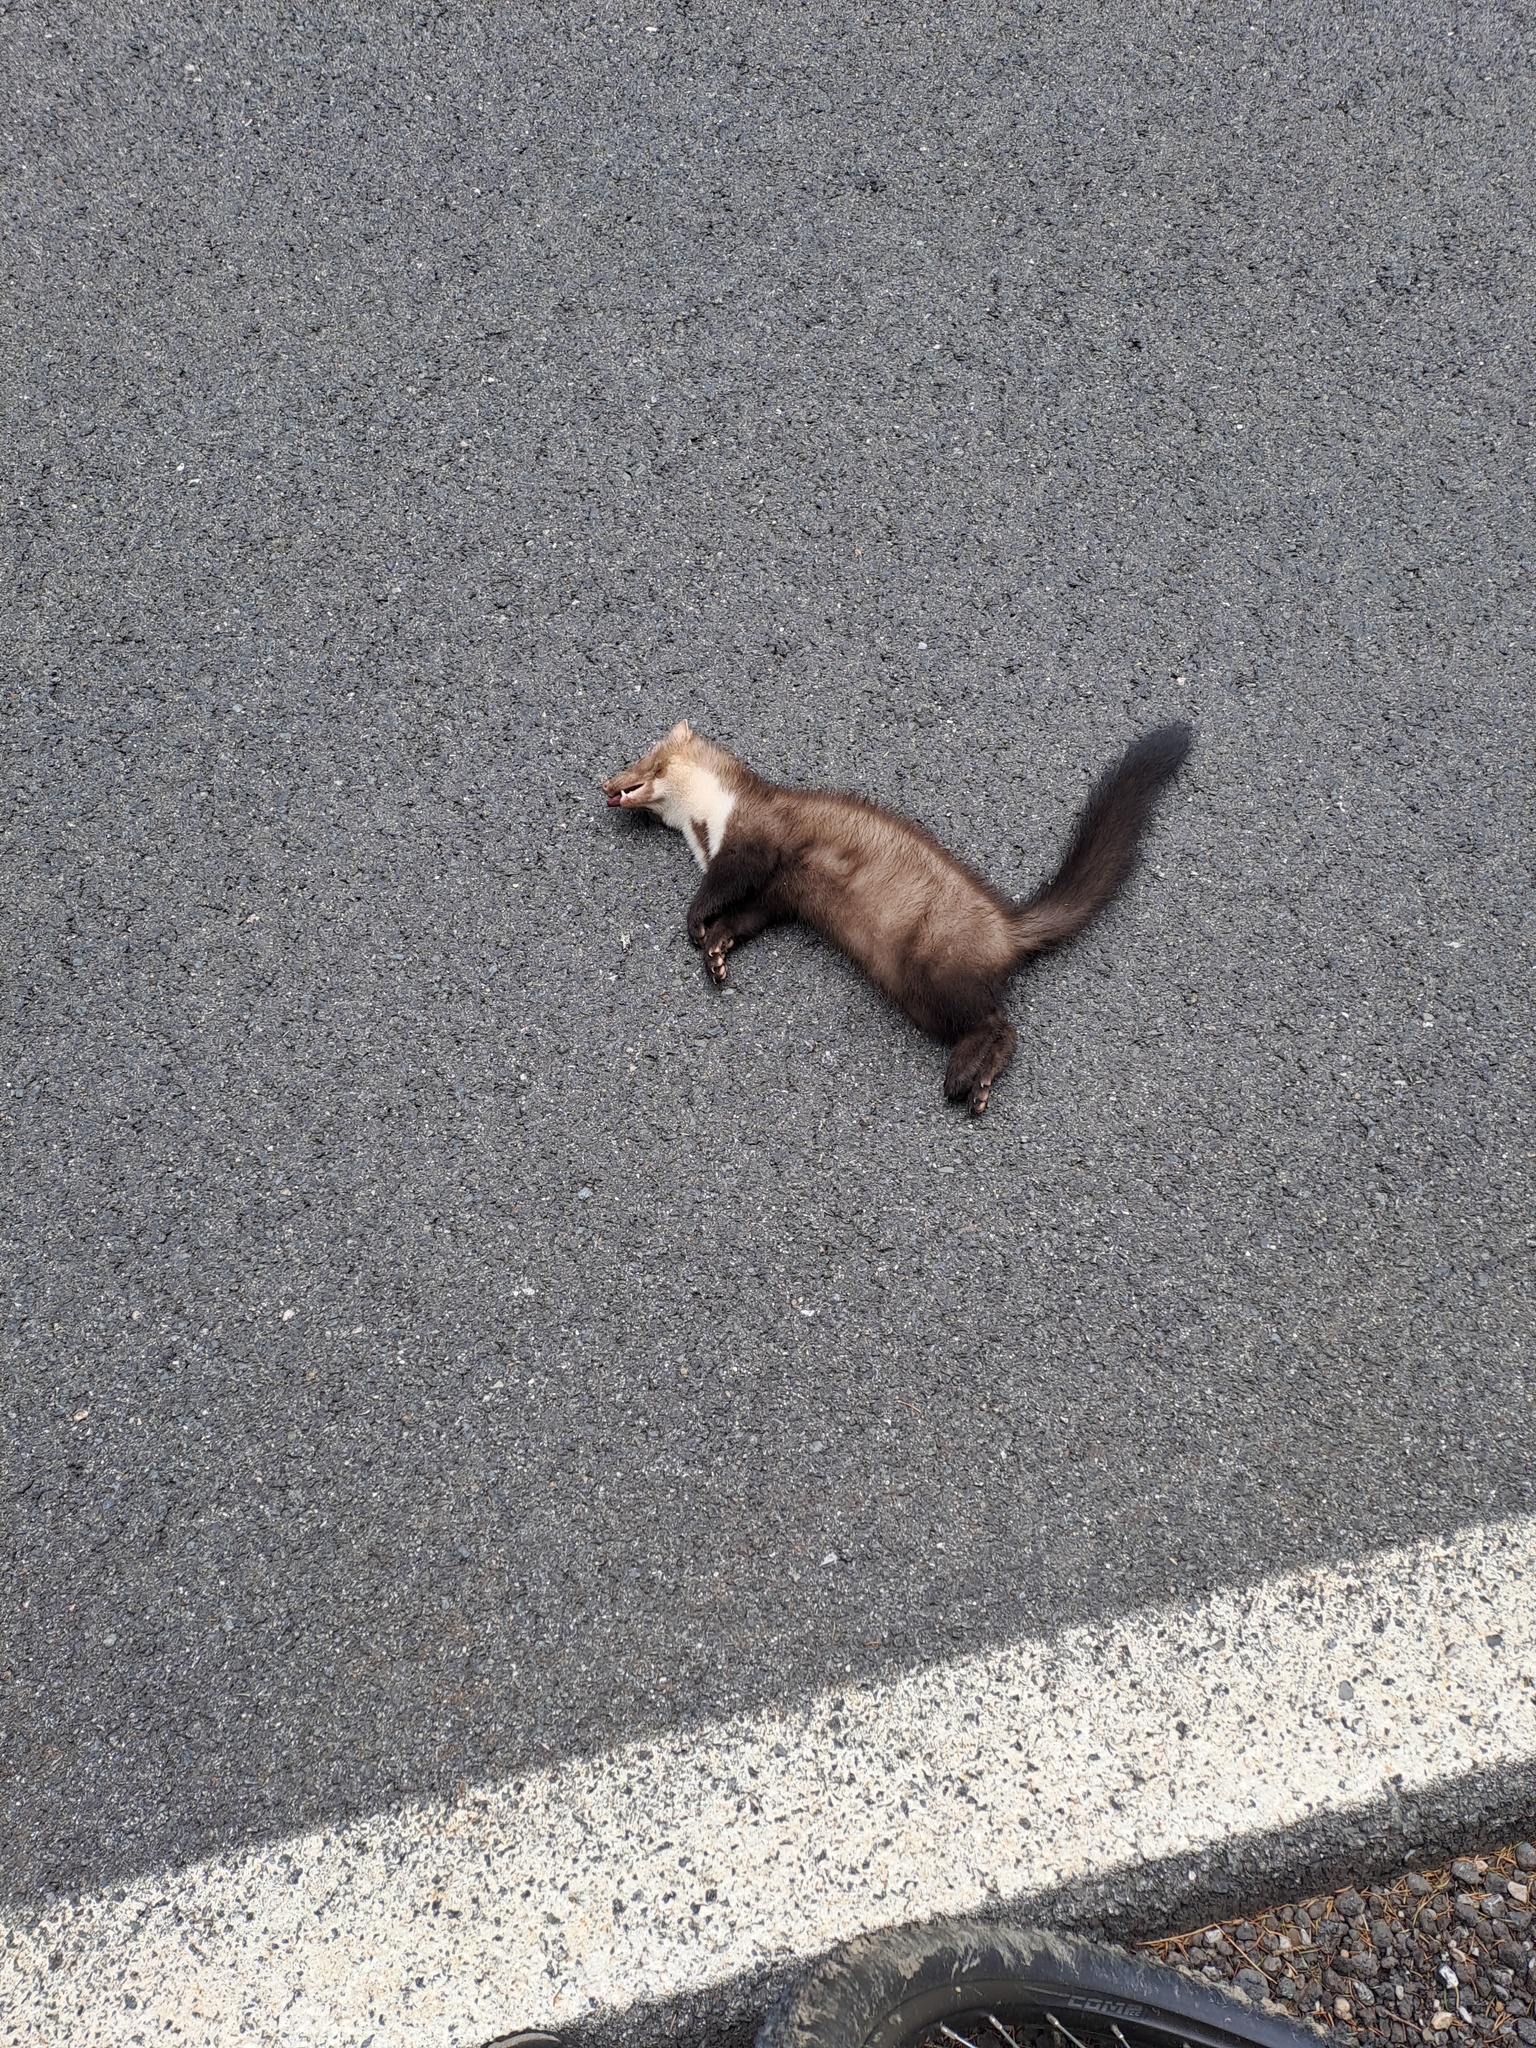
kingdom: Animalia
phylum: Chordata
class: Mammalia
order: Carnivora
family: Mustelidae
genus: Martes
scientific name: Martes foina
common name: Beech marten
